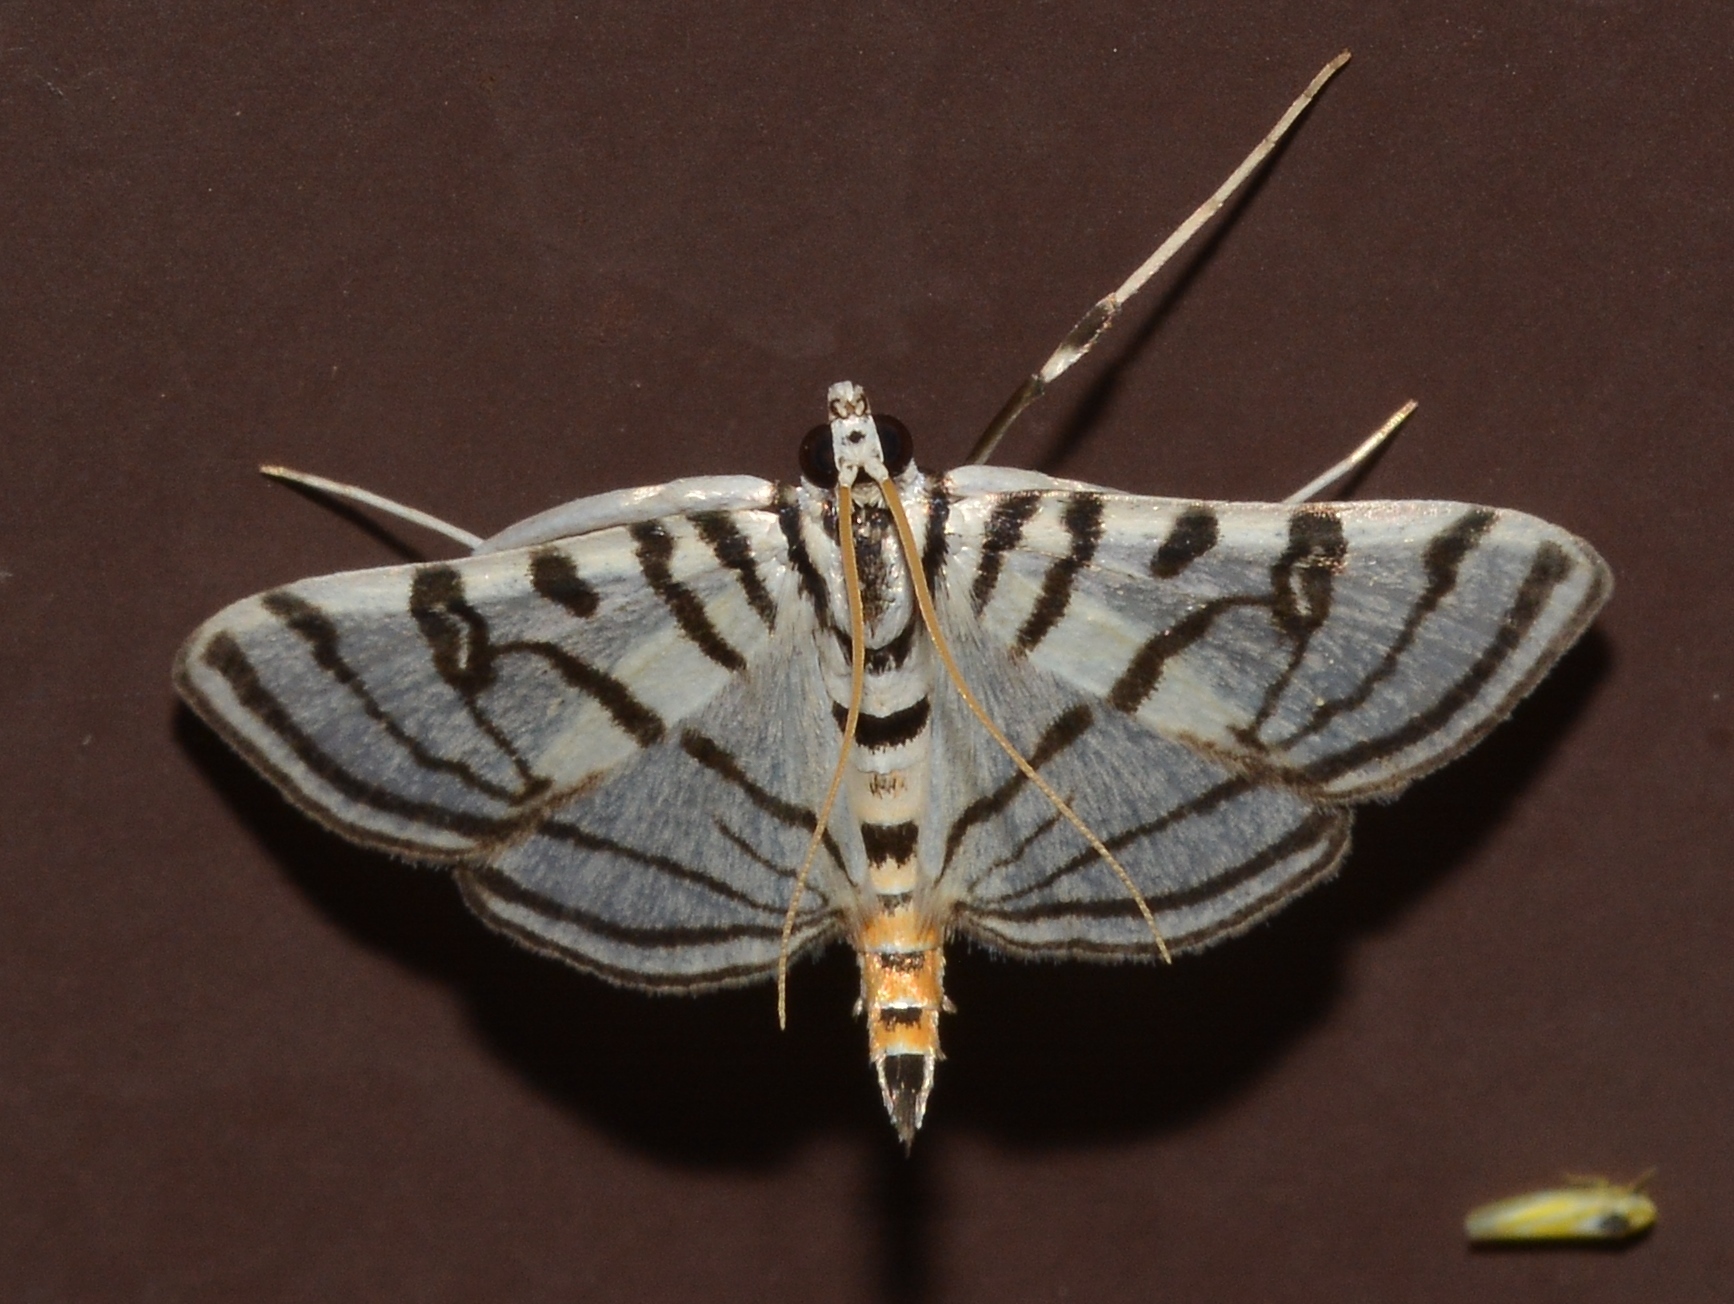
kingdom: Animalia
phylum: Arthropoda
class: Insecta
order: Lepidoptera
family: Crambidae
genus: Conchylodes
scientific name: Conchylodes ovulalis
